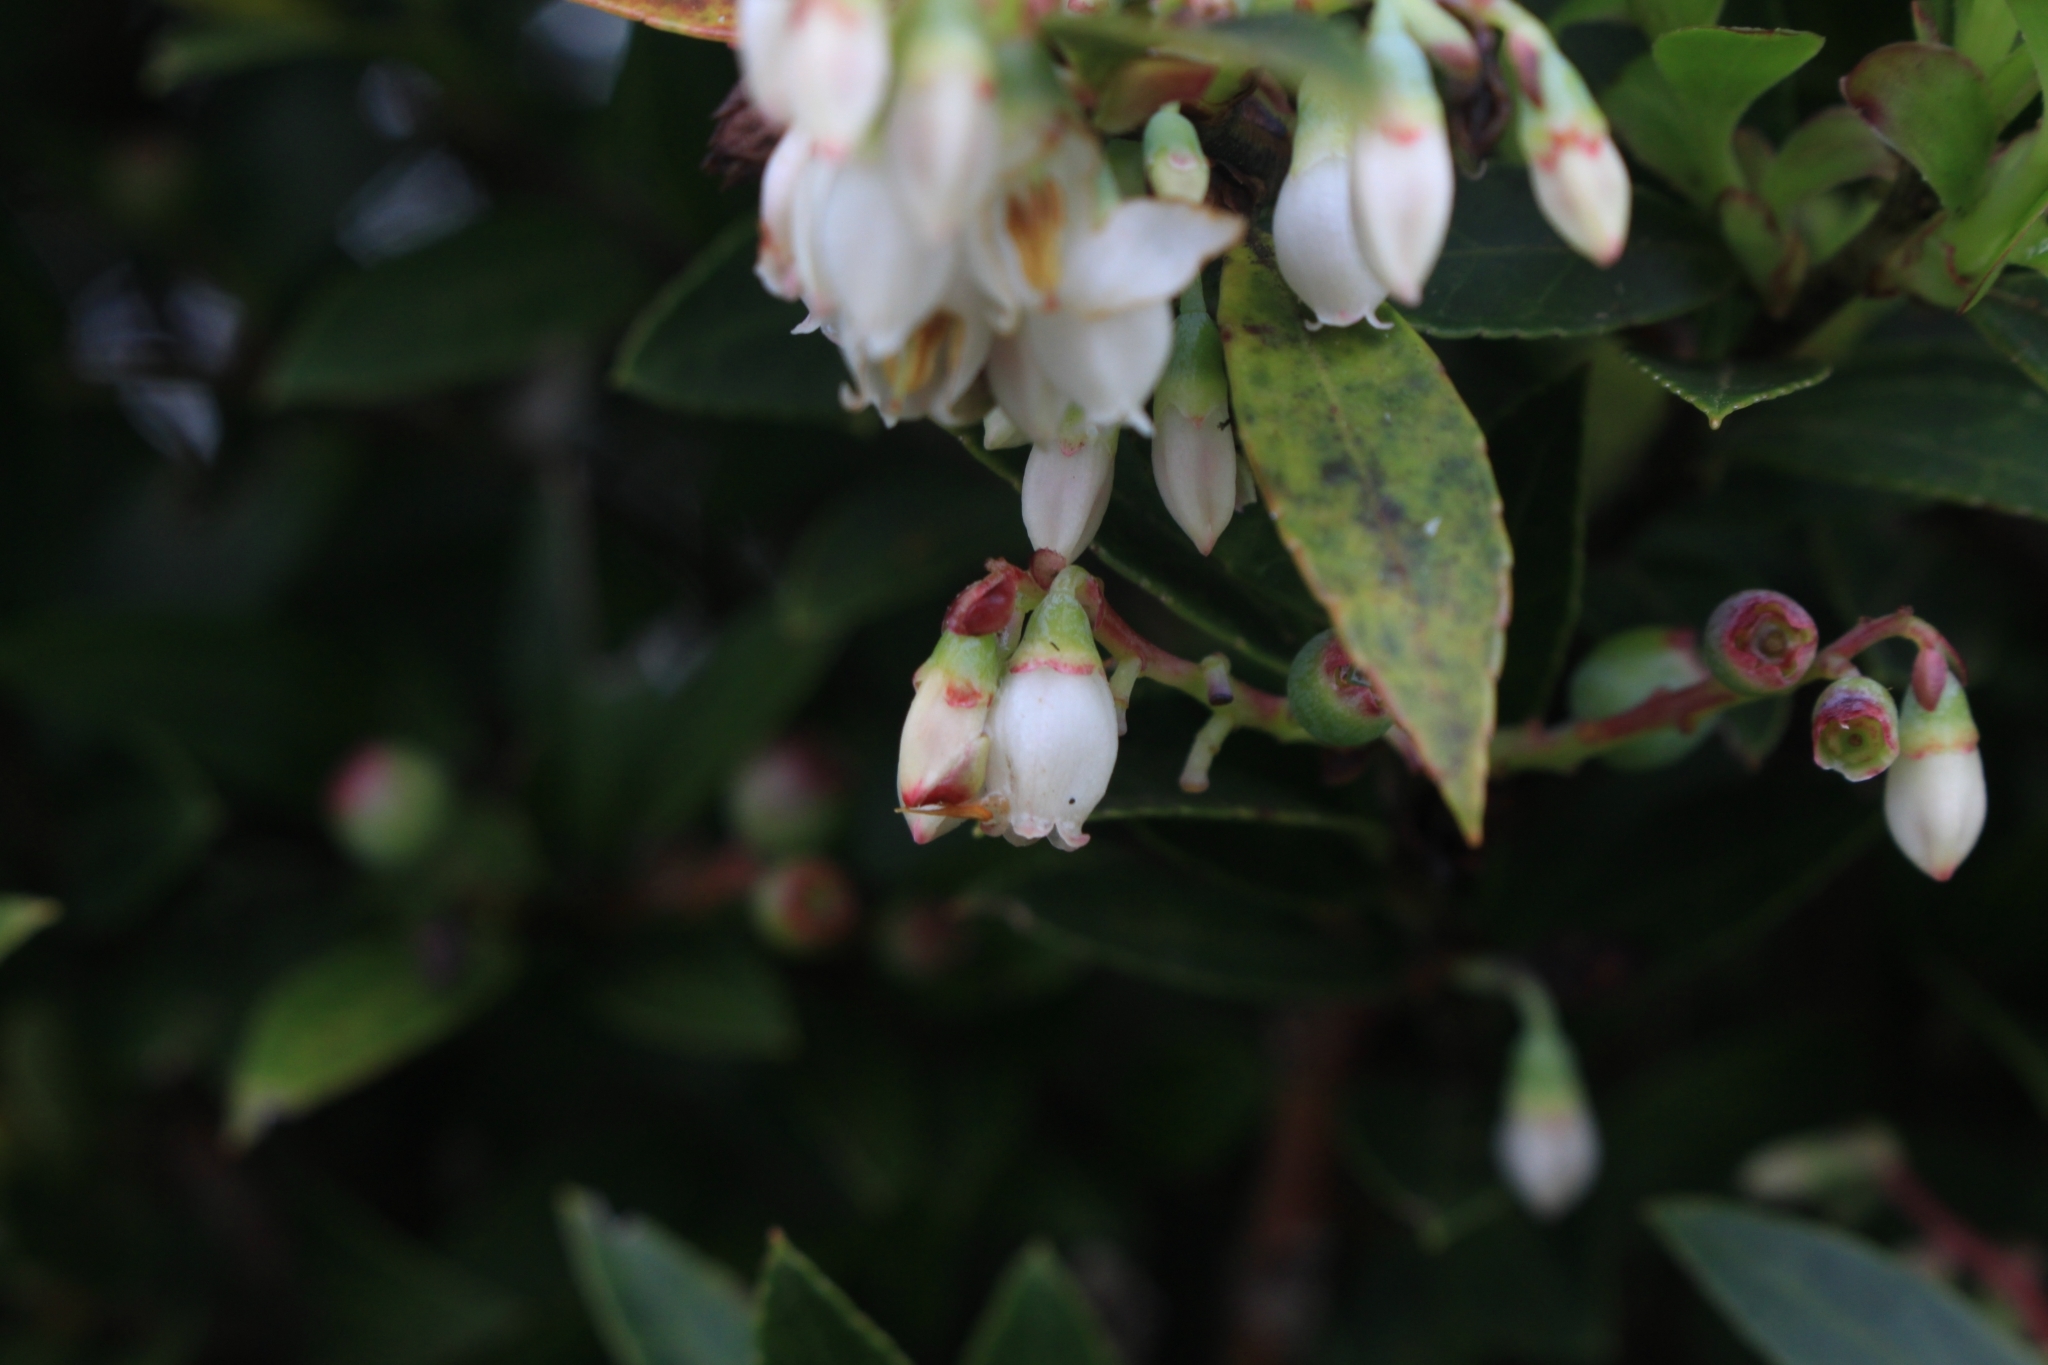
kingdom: Plantae
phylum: Tracheophyta
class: Magnoliopsida
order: Ericales
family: Ericaceae
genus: Vaccinium
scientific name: Vaccinium consanguineum
